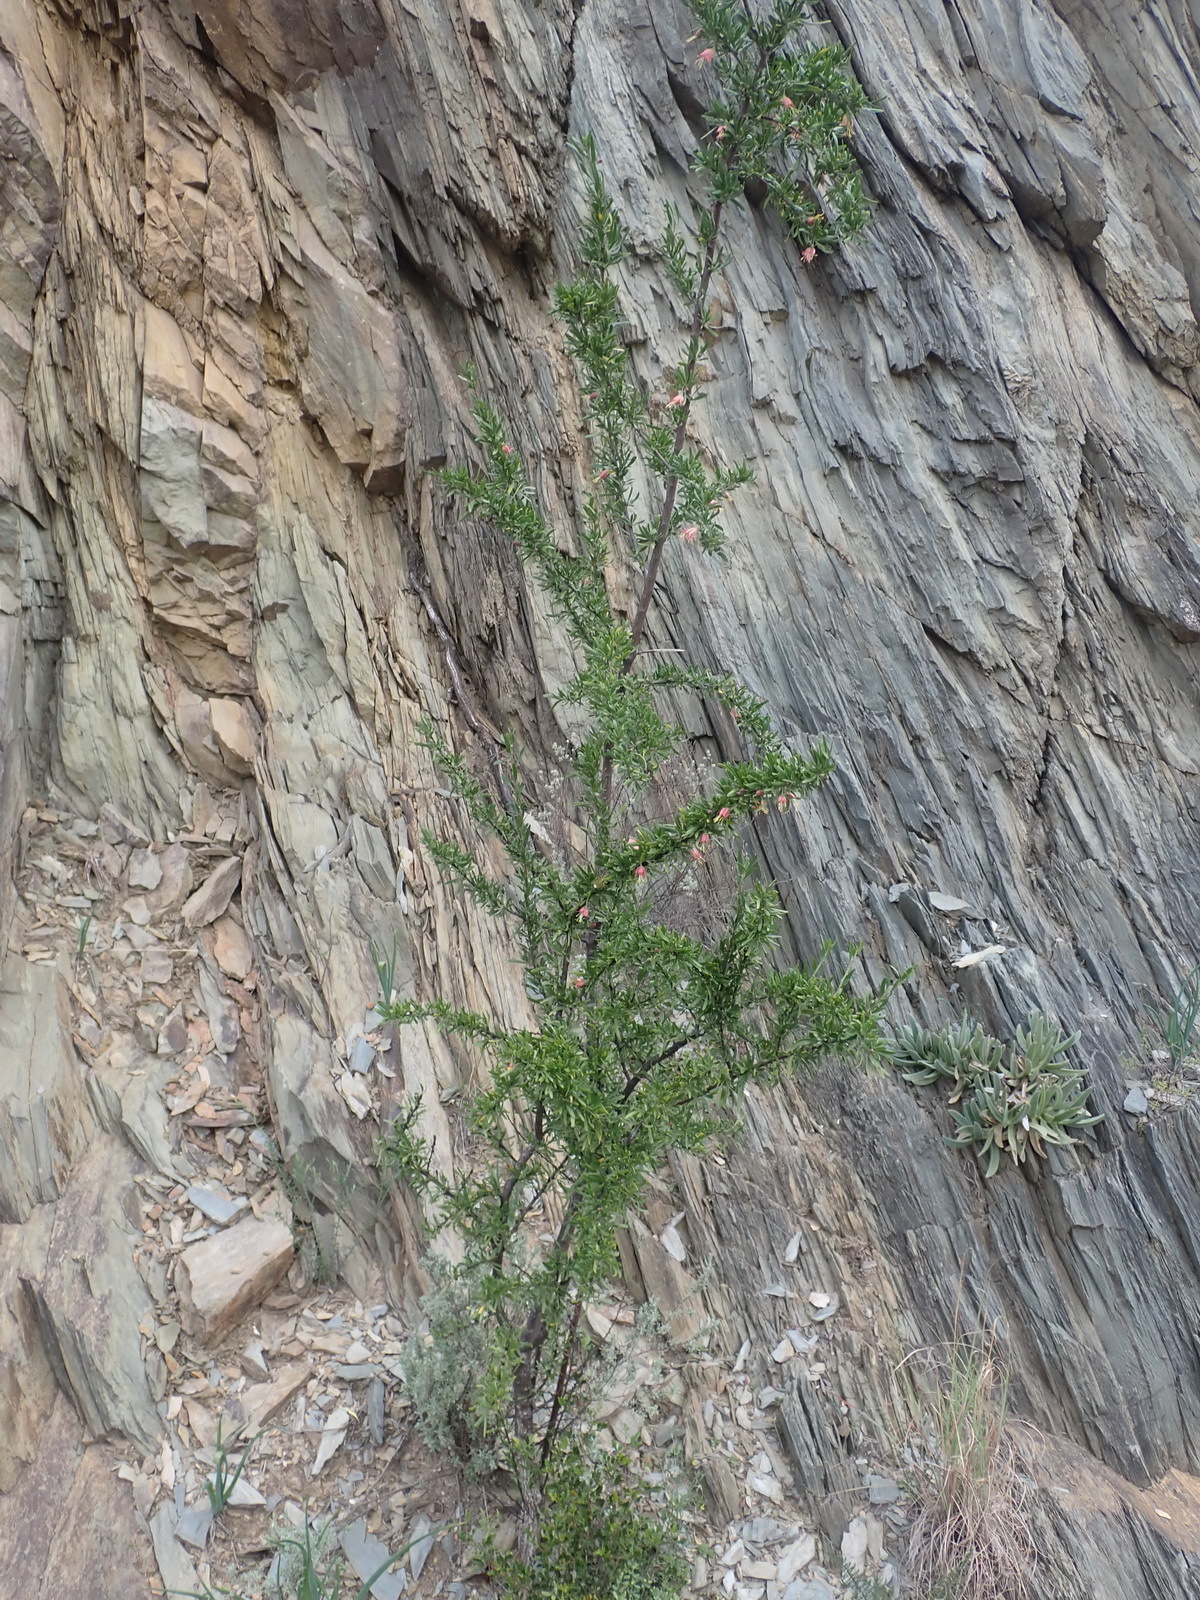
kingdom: Plantae
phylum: Tracheophyta
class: Magnoliopsida
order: Sapindales
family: Meliaceae
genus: Nymania
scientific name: Nymania capensis
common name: Chinese lantern tree
